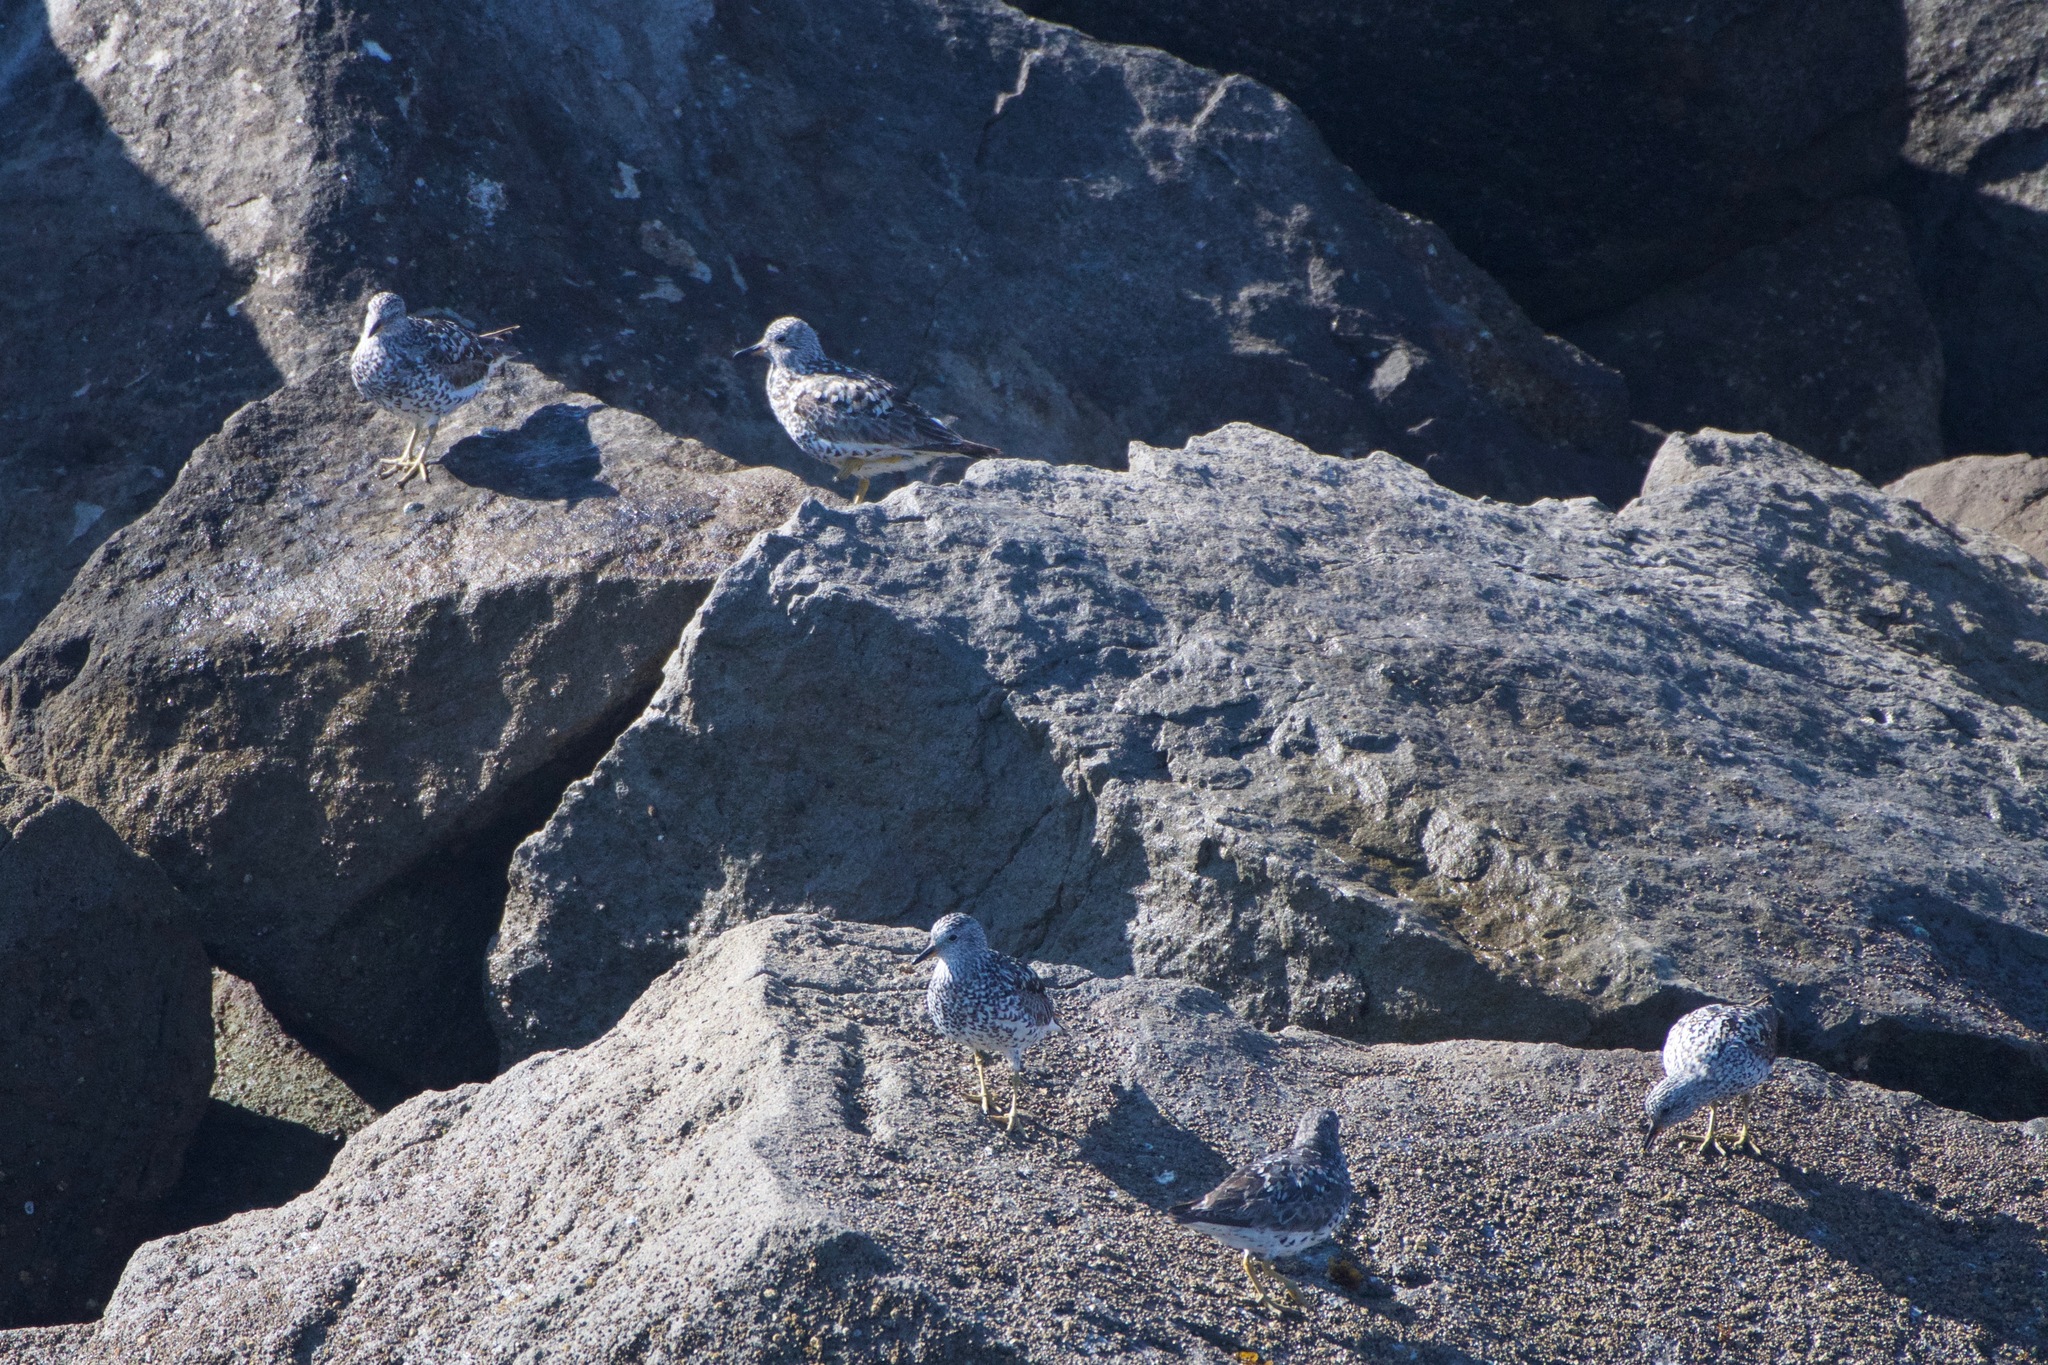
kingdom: Animalia
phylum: Chordata
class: Aves
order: Charadriiformes
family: Scolopacidae
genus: Calidris
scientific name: Calidris virgata
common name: Surfbird
